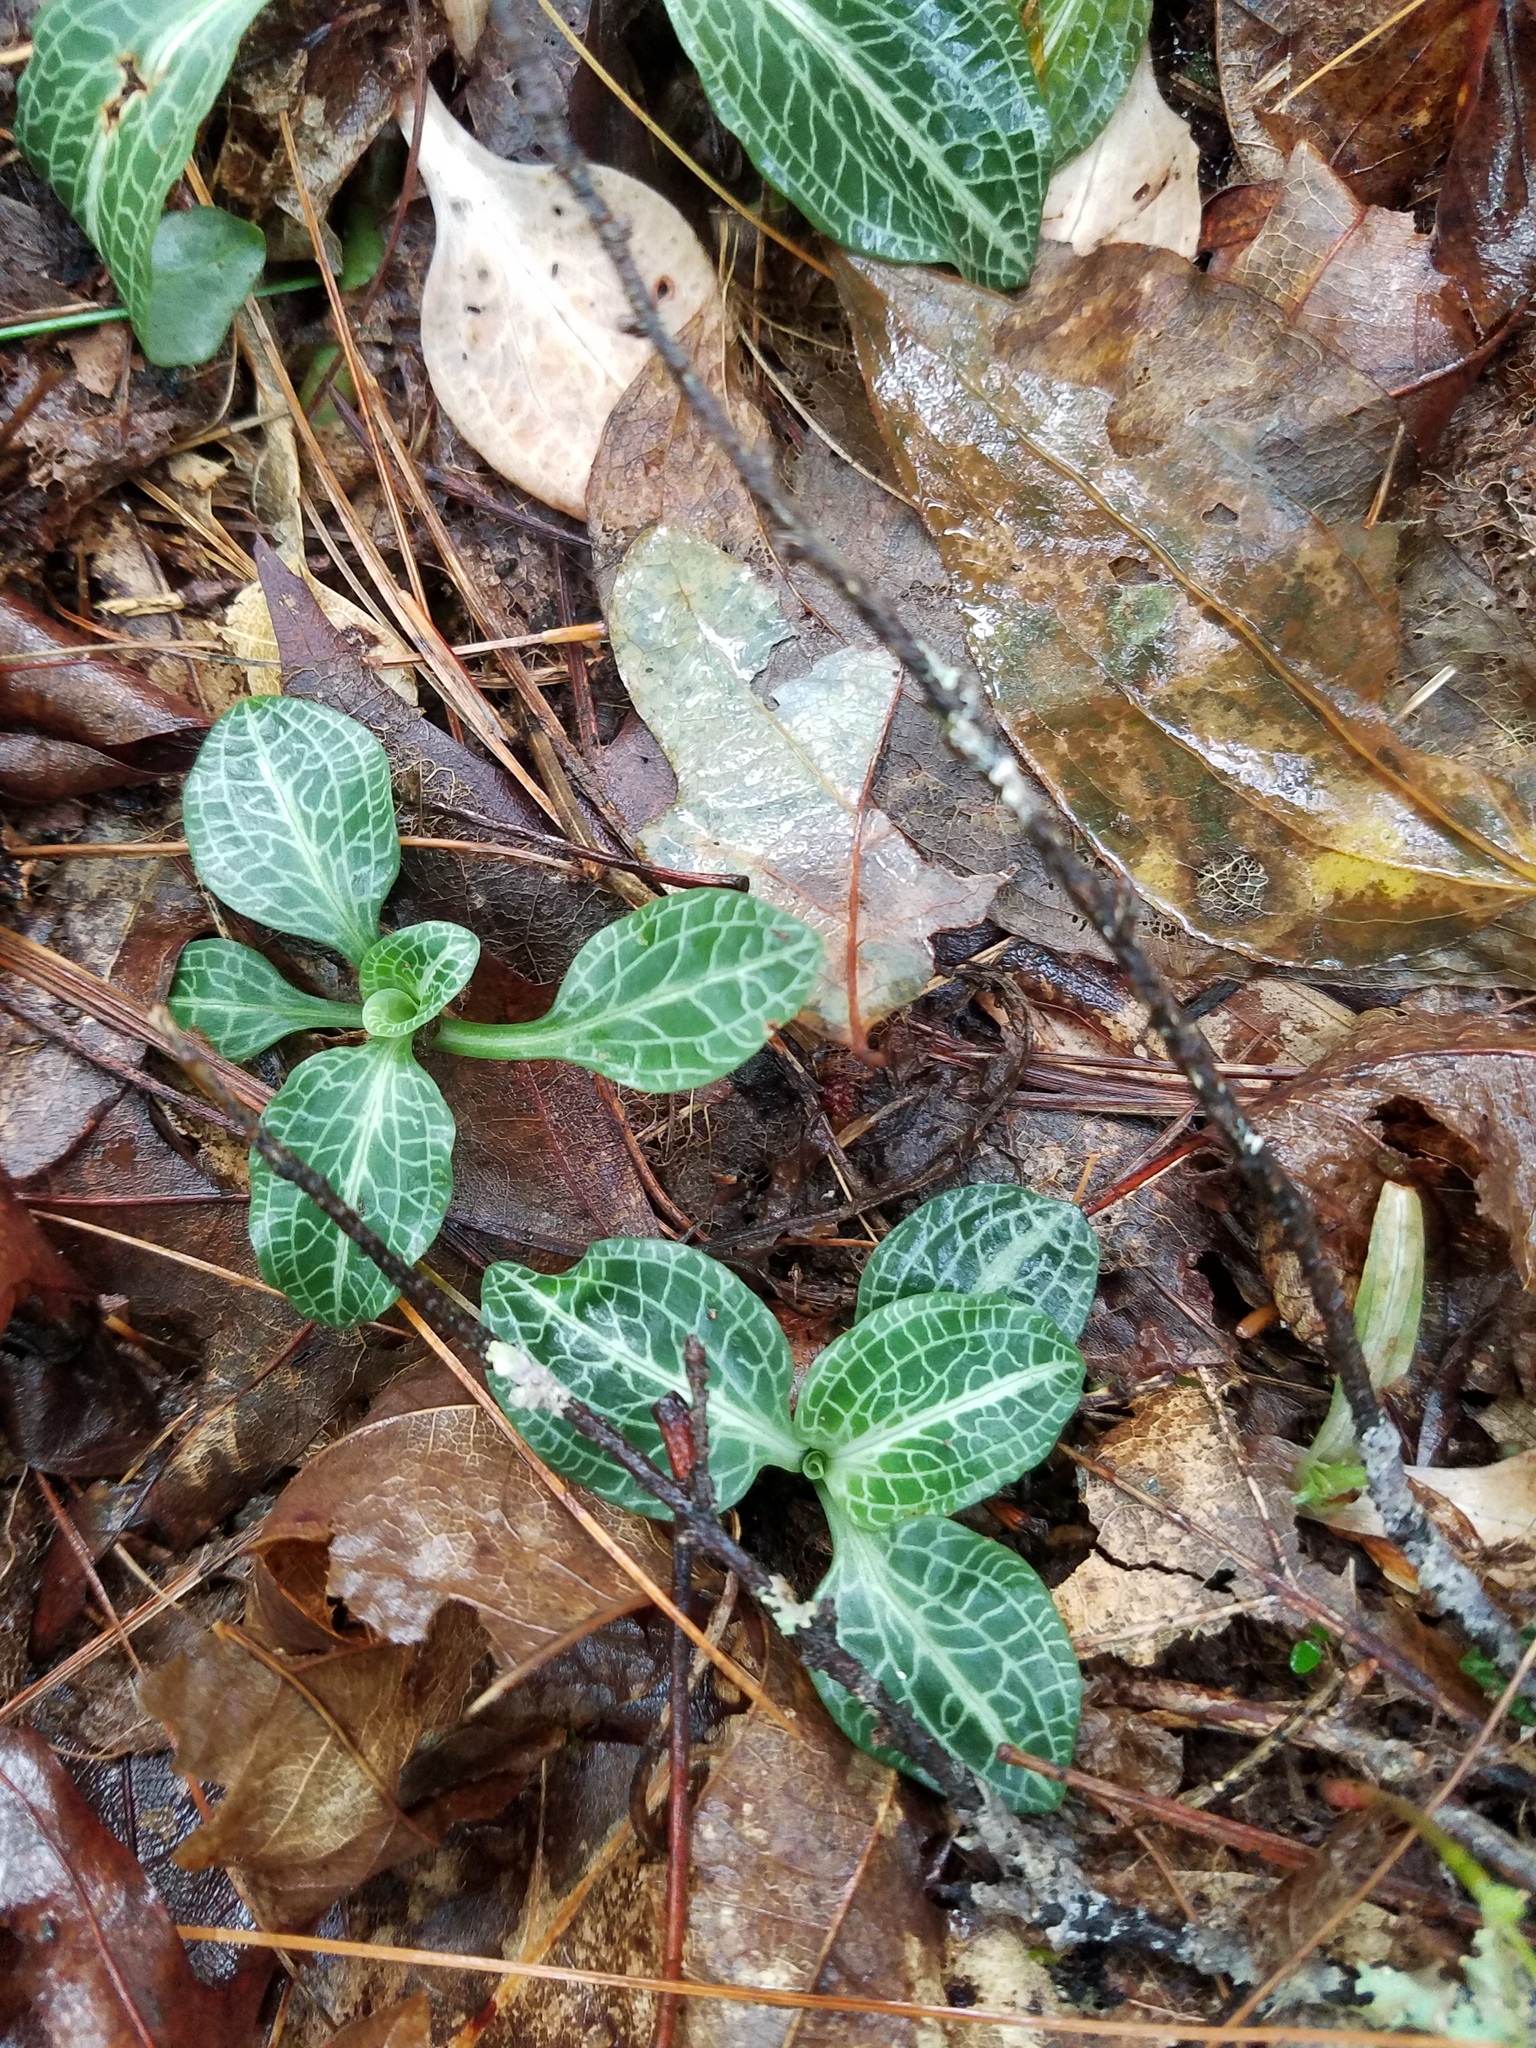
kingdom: Plantae
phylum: Tracheophyta
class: Liliopsida
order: Asparagales
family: Orchidaceae
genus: Goodyera
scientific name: Goodyera pubescens
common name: Downy rattlesnake-plantain
